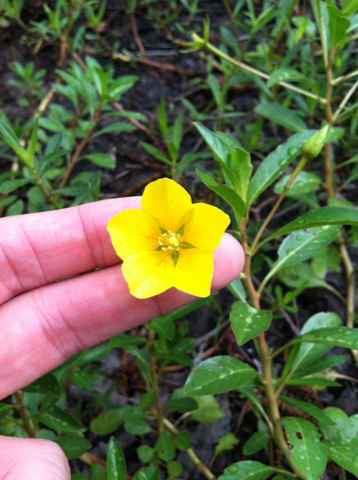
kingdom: Plantae
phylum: Tracheophyta
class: Magnoliopsida
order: Myrtales
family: Onagraceae
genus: Ludwigia
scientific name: Ludwigia peploides
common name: Floating primrose-willow
